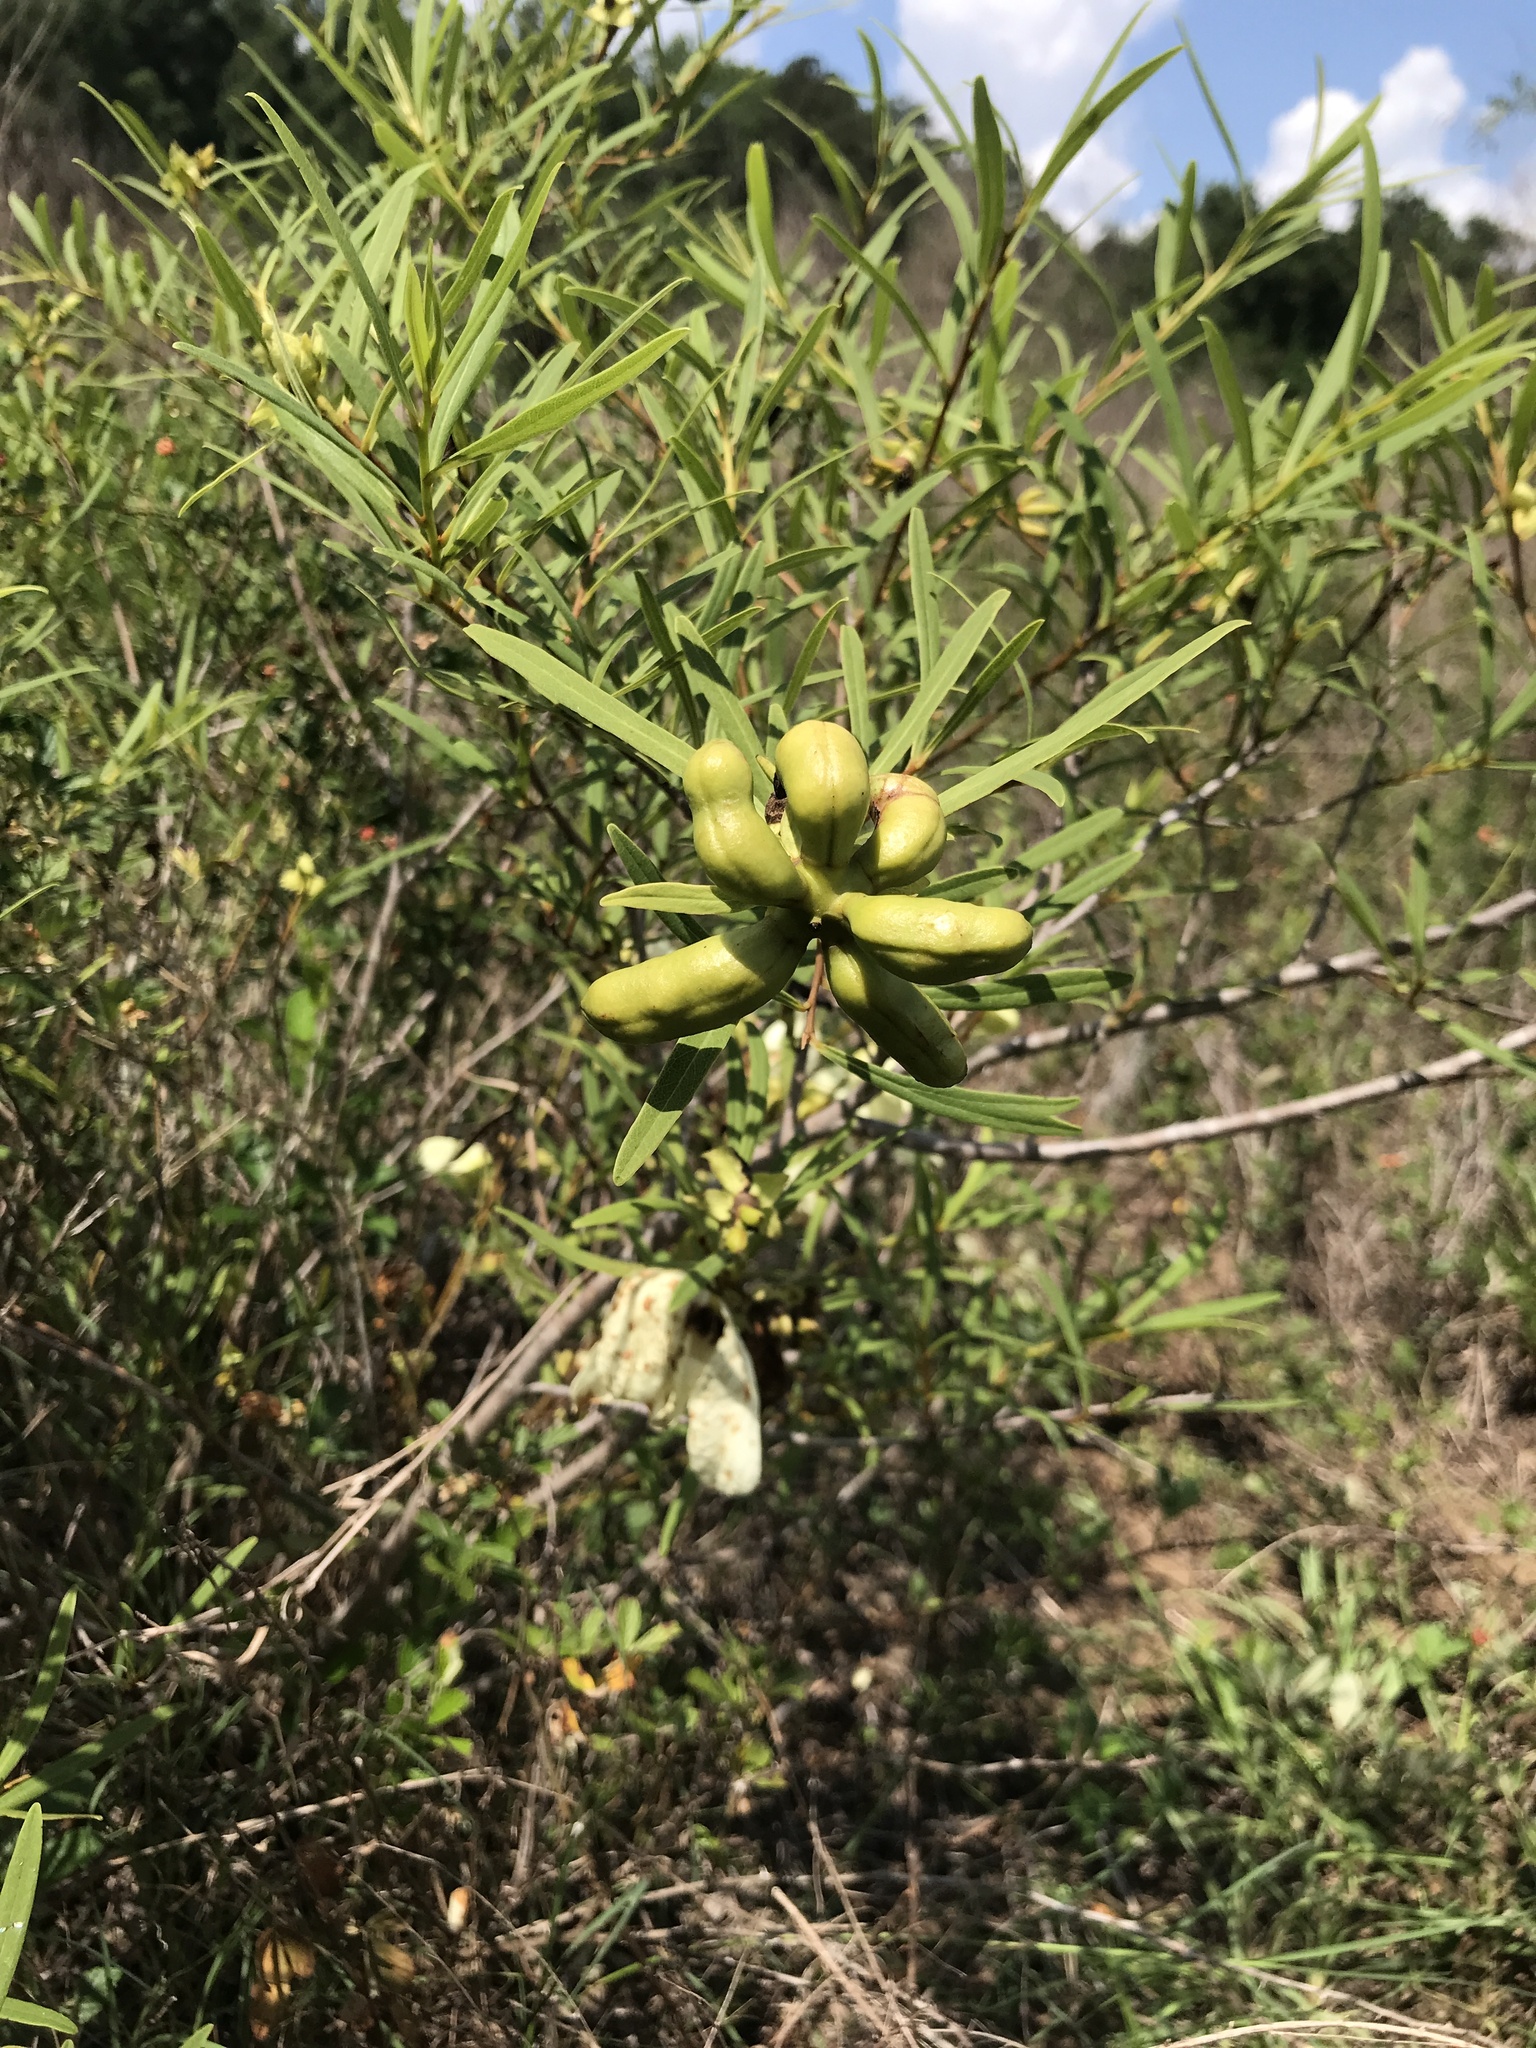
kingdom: Plantae
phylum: Tracheophyta
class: Magnoliopsida
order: Magnoliales
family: Annonaceae
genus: Asimina
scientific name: Asimina longifolia
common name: Polecatbush
